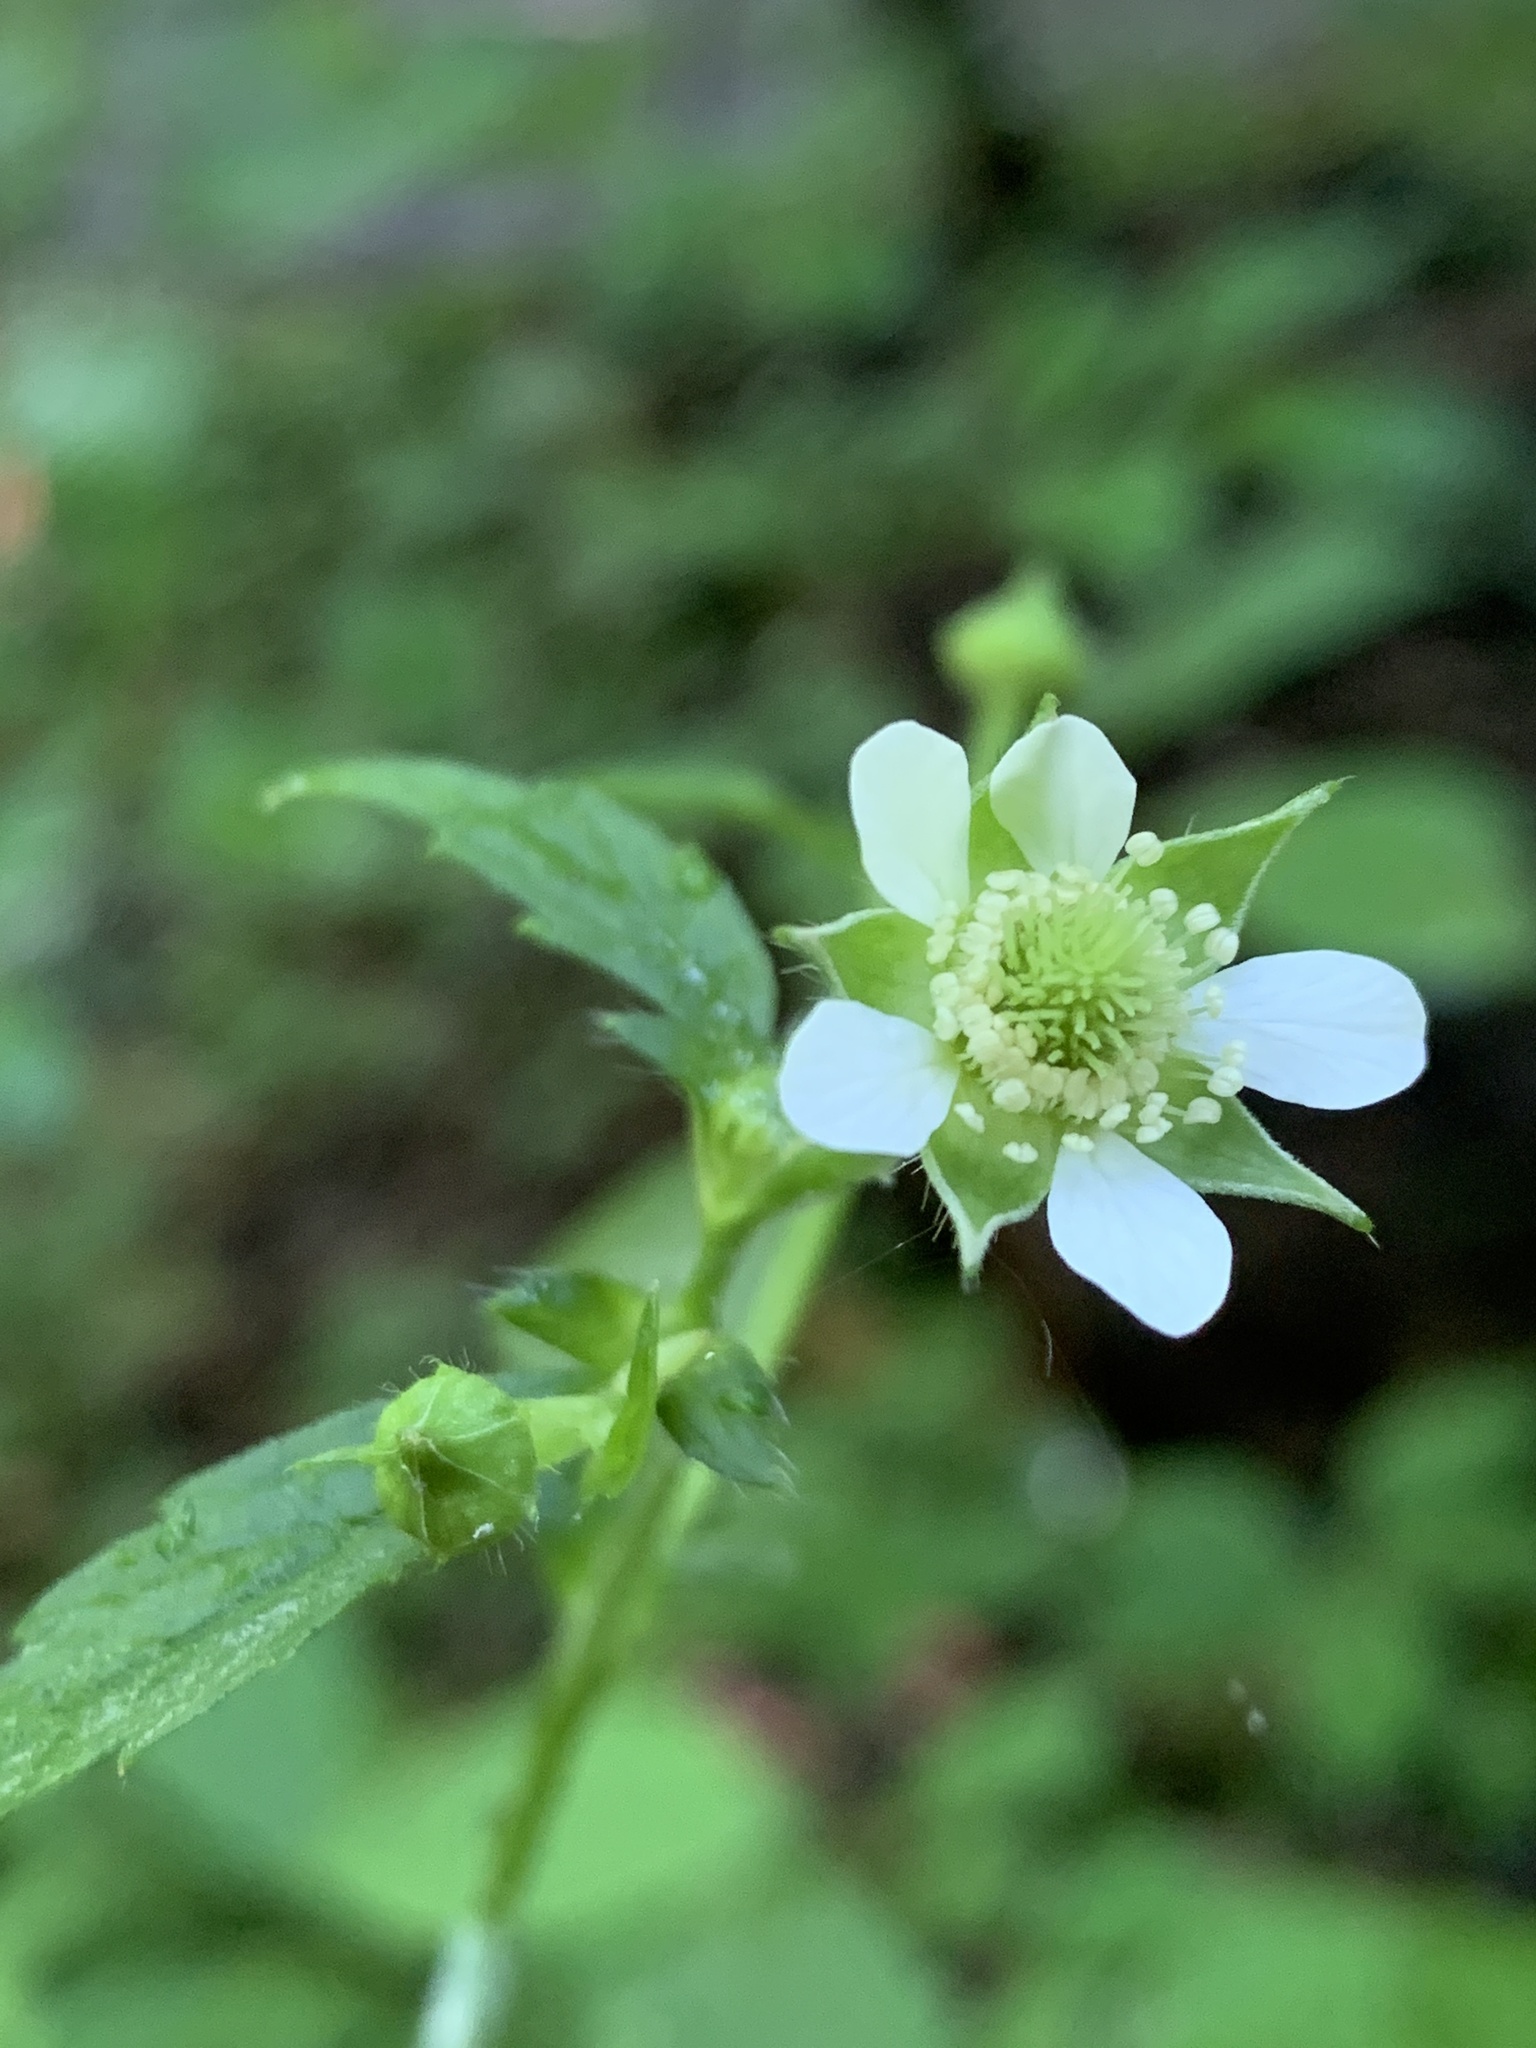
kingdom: Plantae
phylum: Tracheophyta
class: Magnoliopsida
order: Rosales
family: Rosaceae
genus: Geum
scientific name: Geum canadense
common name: White avens
